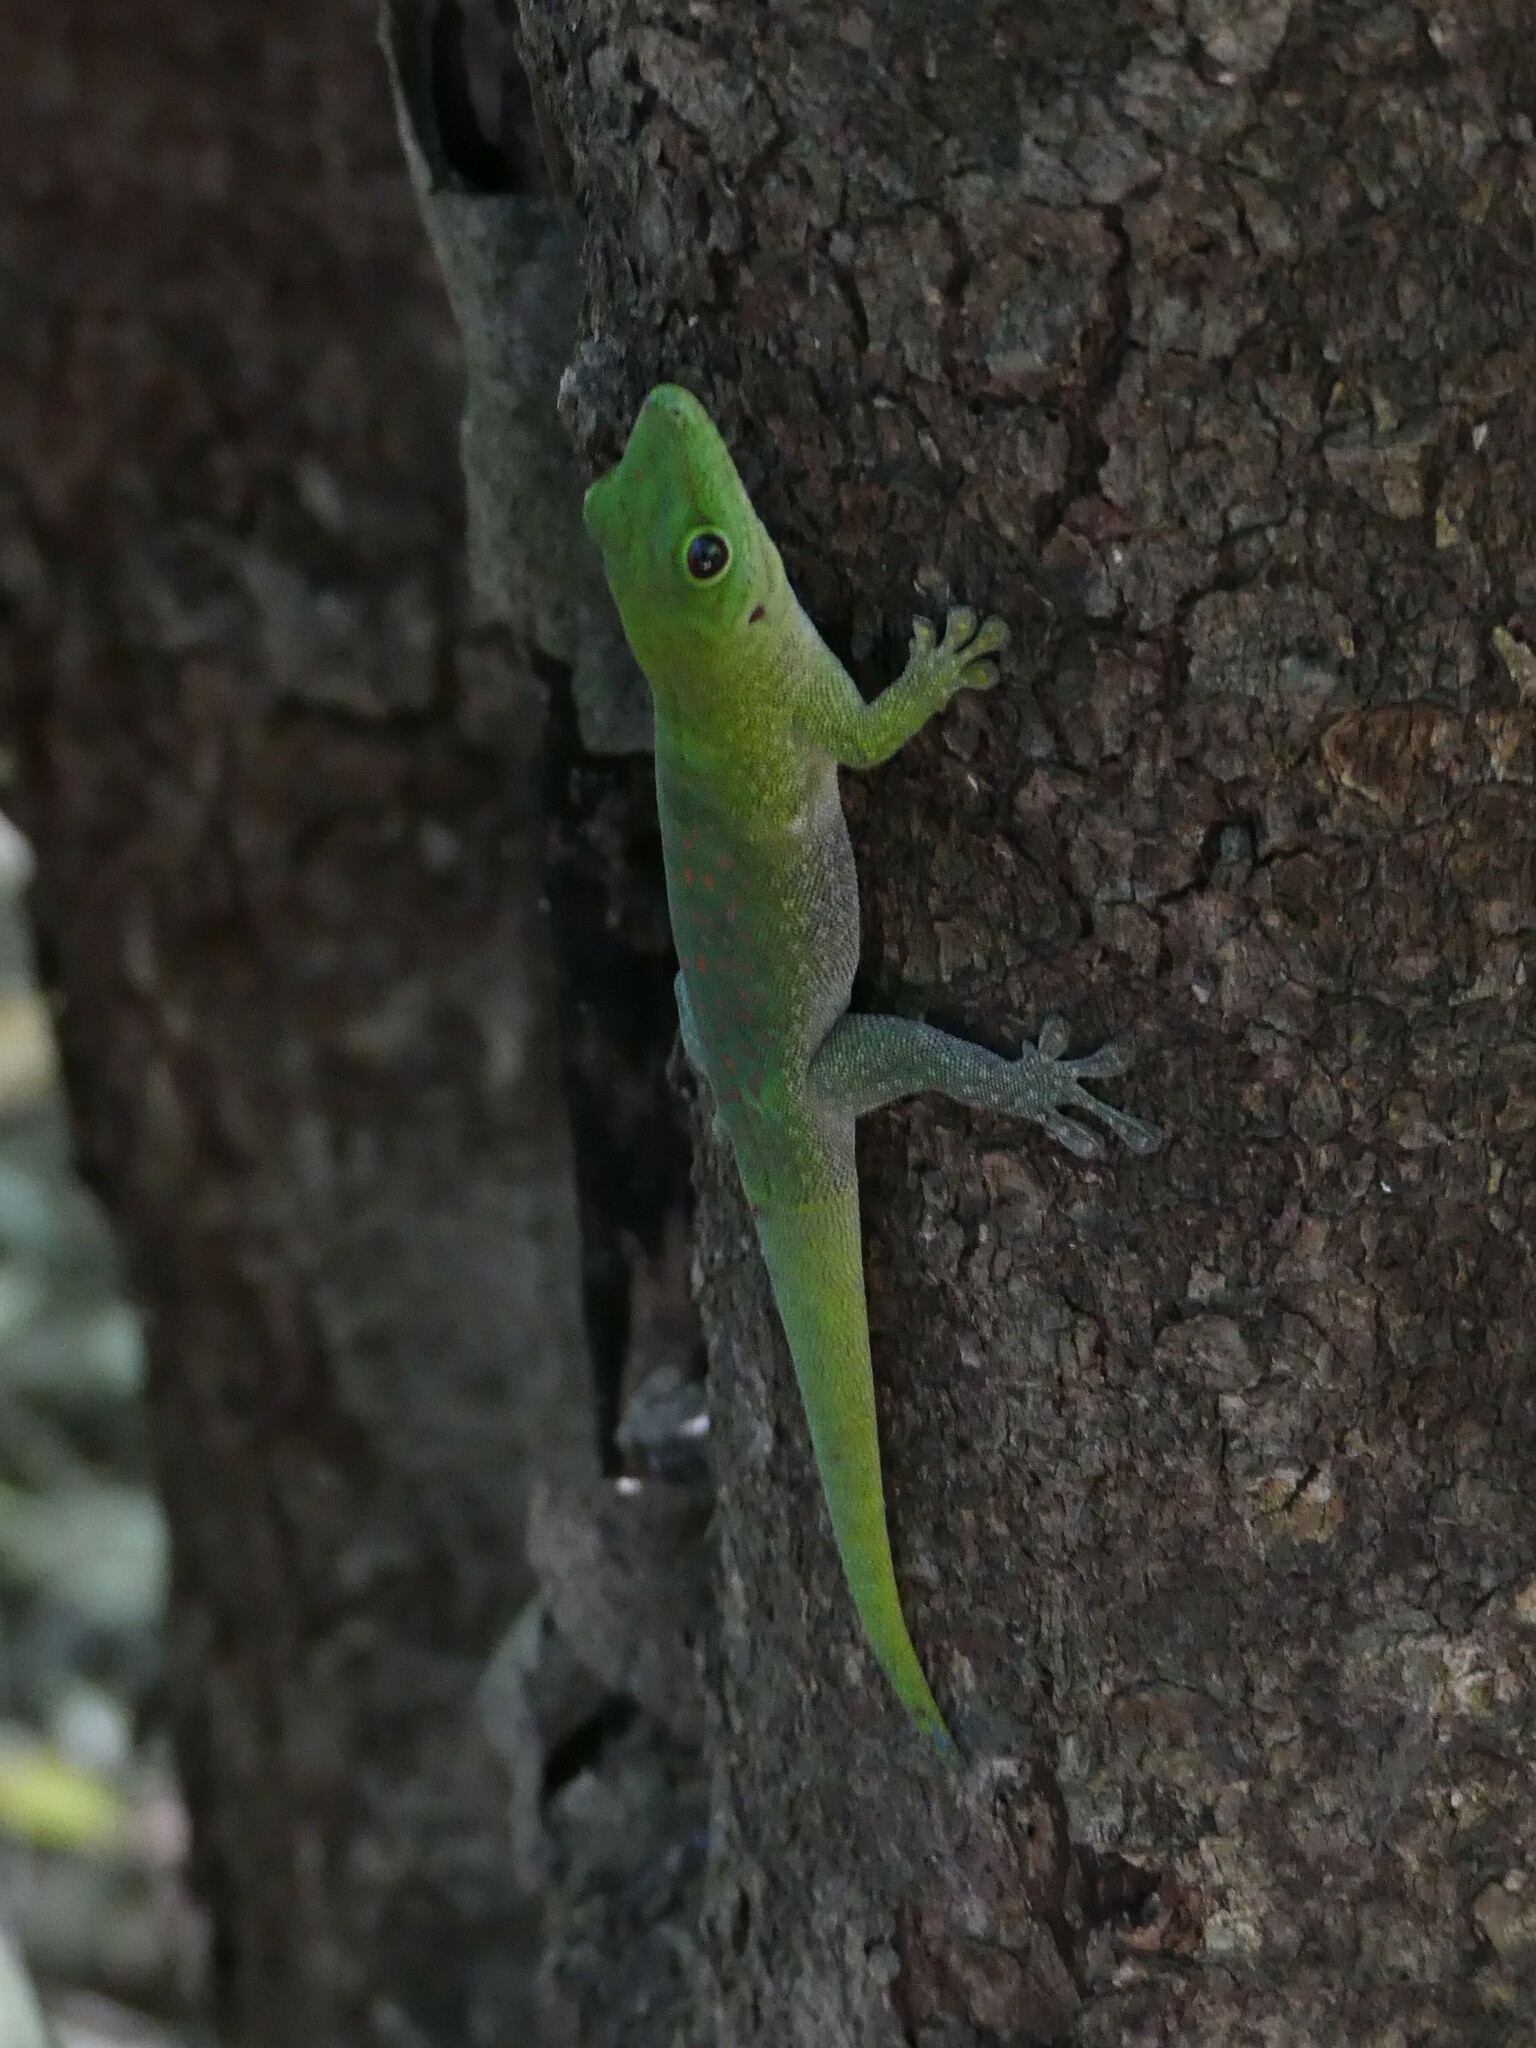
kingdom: Animalia
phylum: Chordata
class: Squamata
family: Gekkonidae
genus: Phelsuma
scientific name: Phelsuma kochi
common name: Madagascar day gecko
